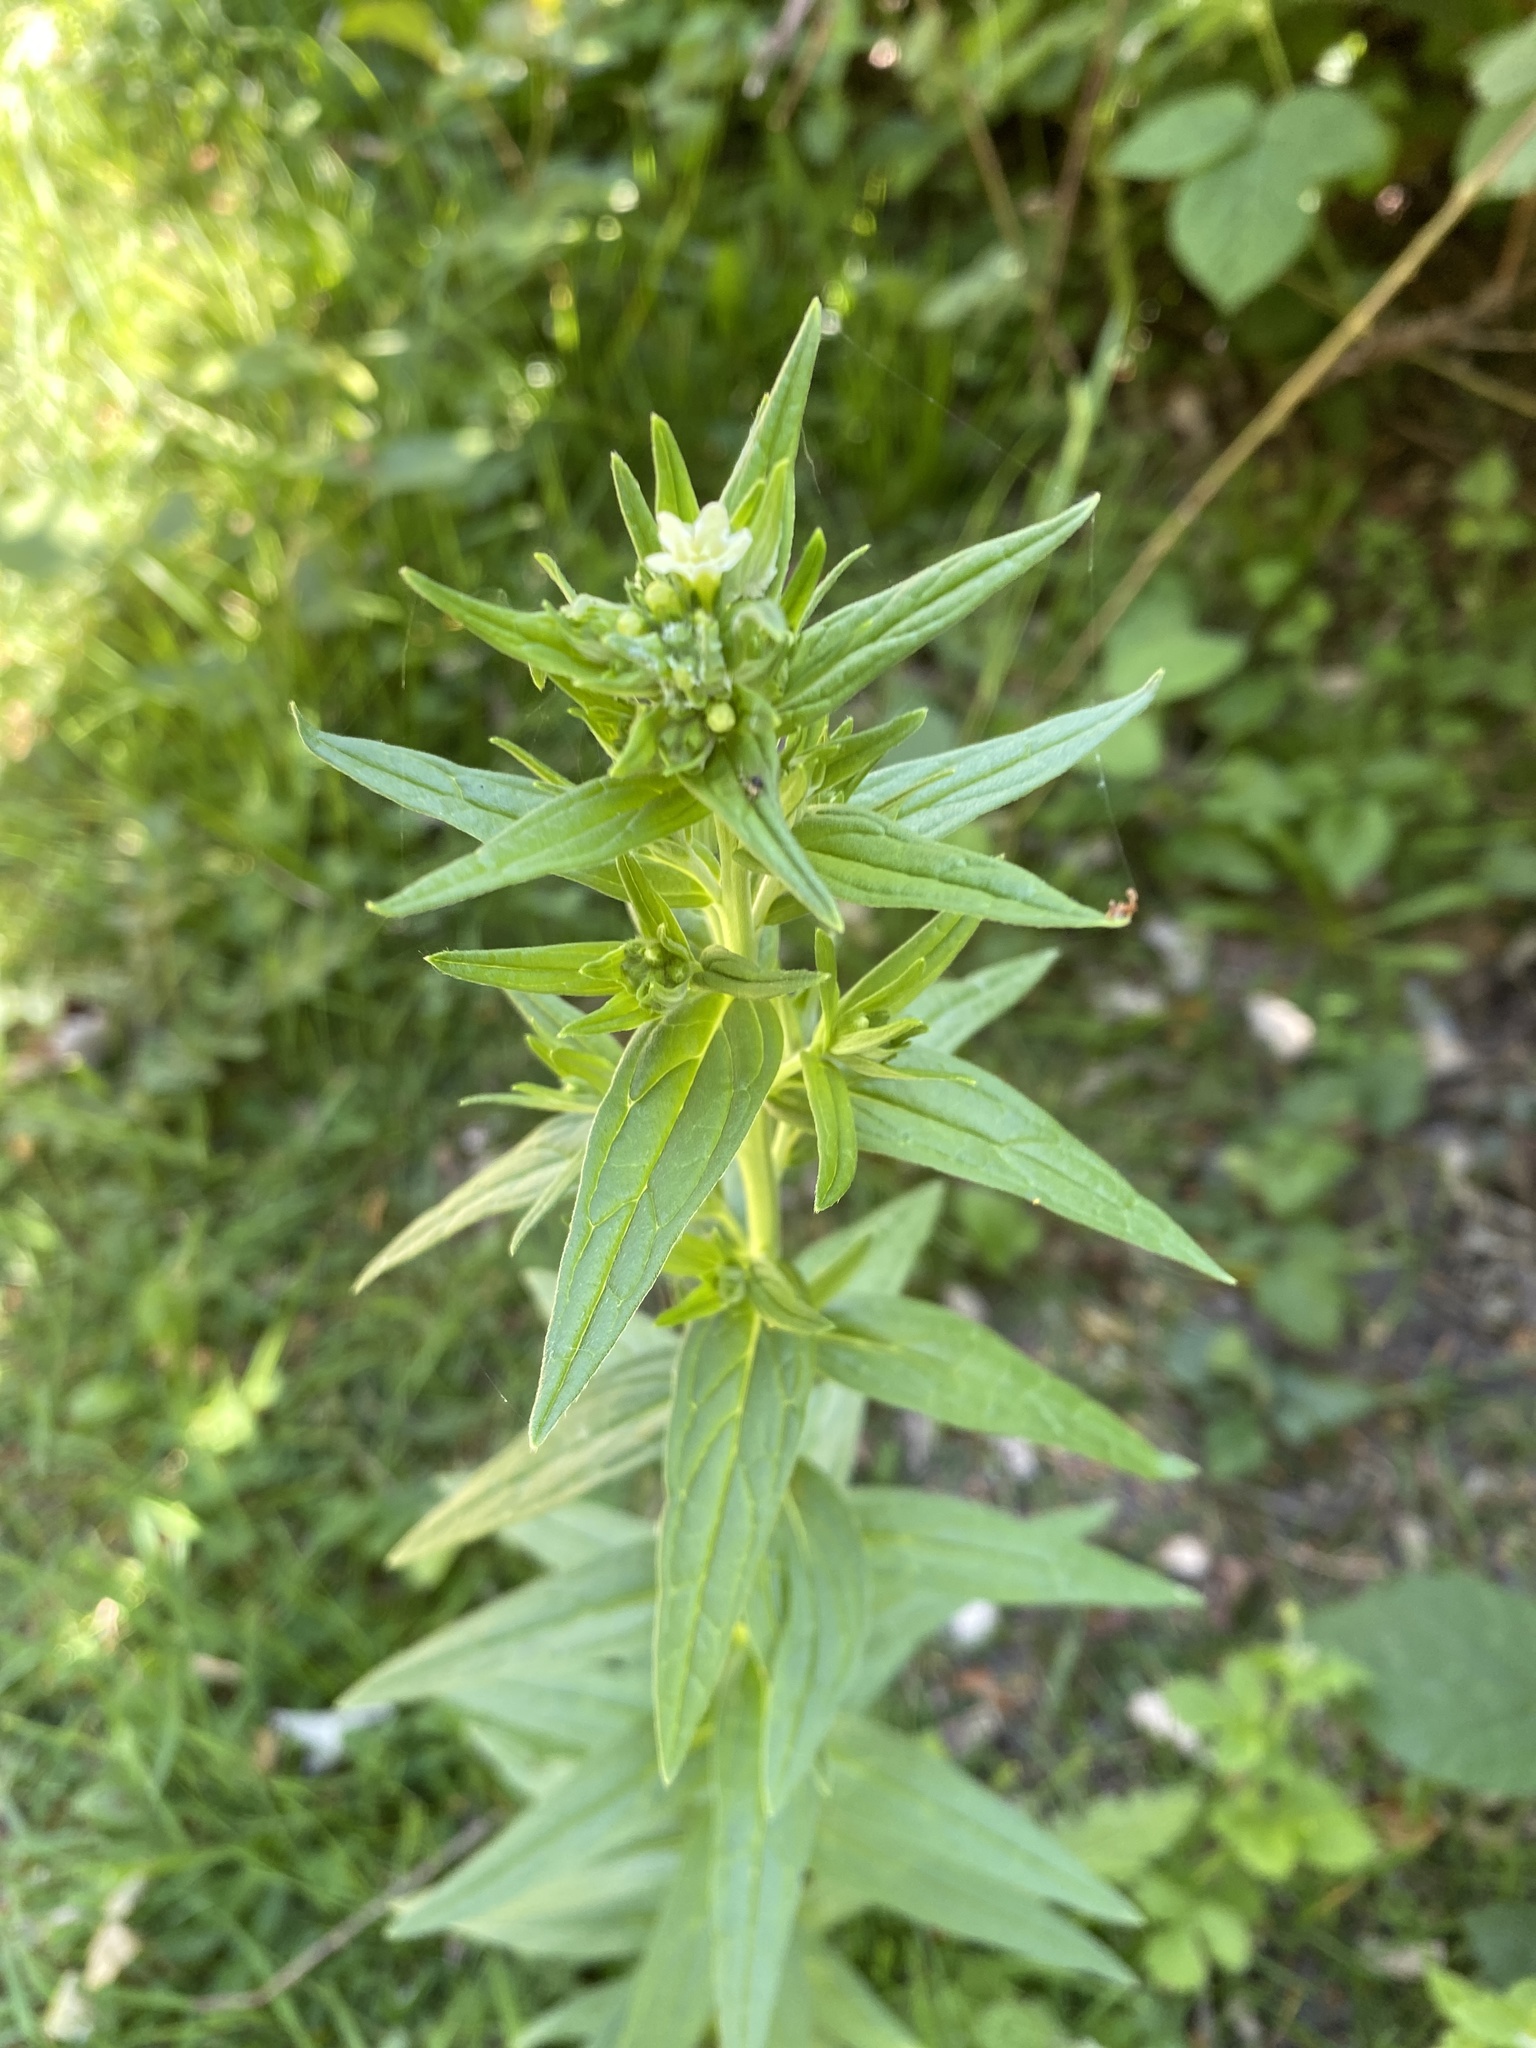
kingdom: Plantae
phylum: Tracheophyta
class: Magnoliopsida
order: Boraginales
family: Boraginaceae
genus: Lithospermum
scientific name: Lithospermum officinale
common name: Common gromwell
